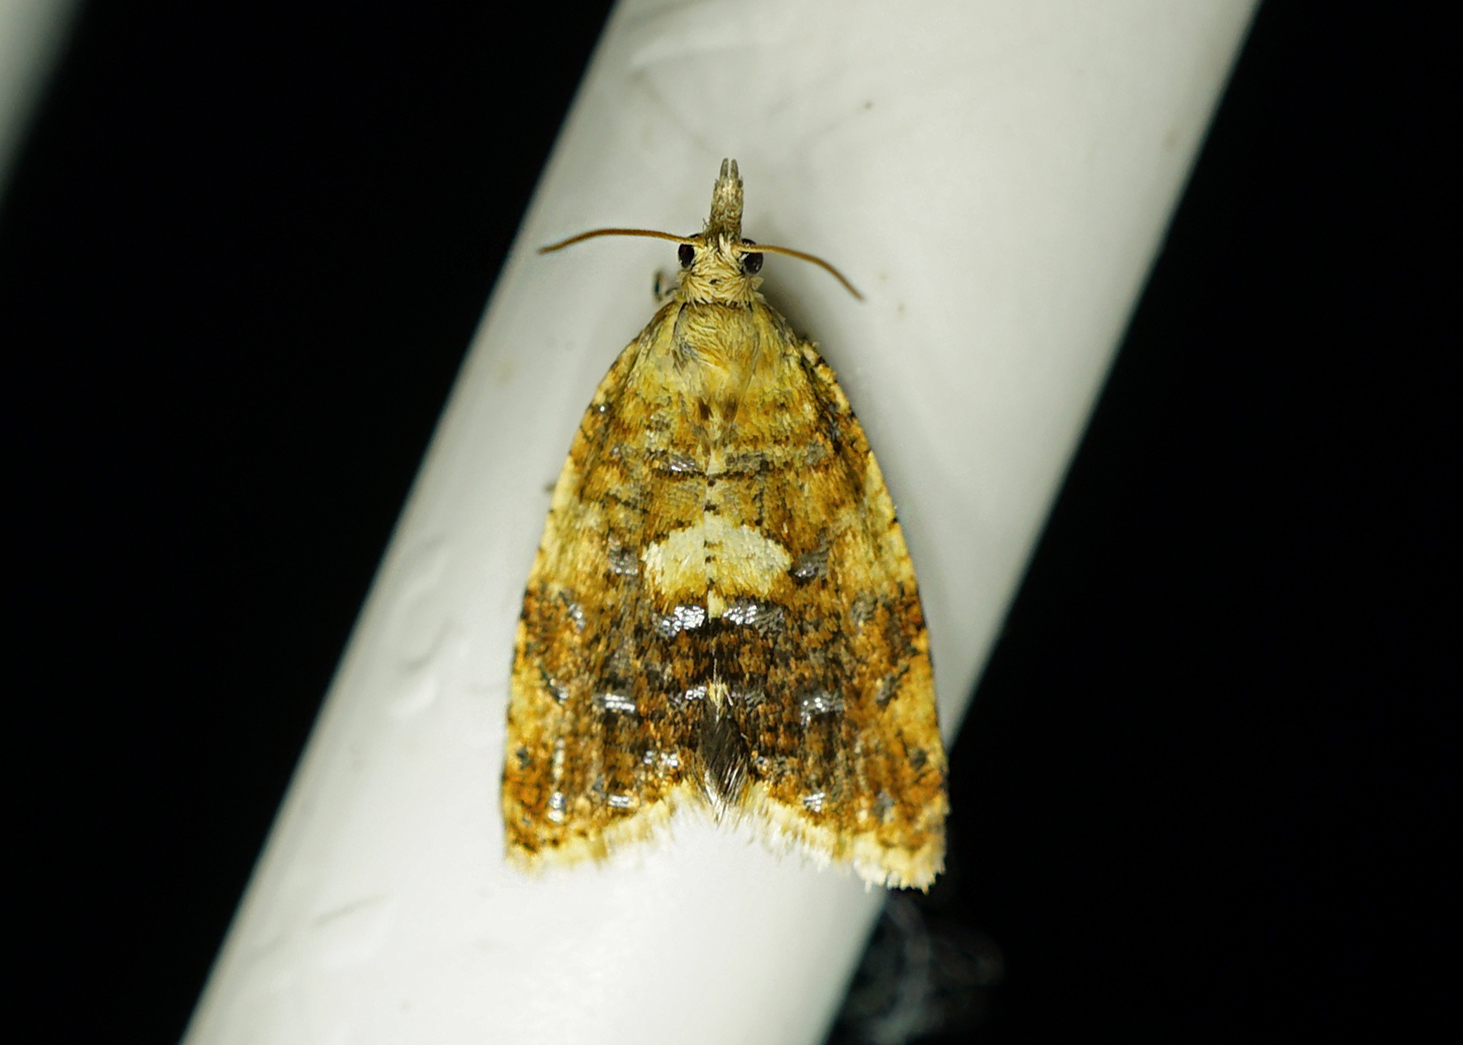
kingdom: Animalia
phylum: Arthropoda
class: Insecta
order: Lepidoptera
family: Tortricidae
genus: Pseudargyrotoza
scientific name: Pseudargyrotoza conwagana
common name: Yellow-spot twist
